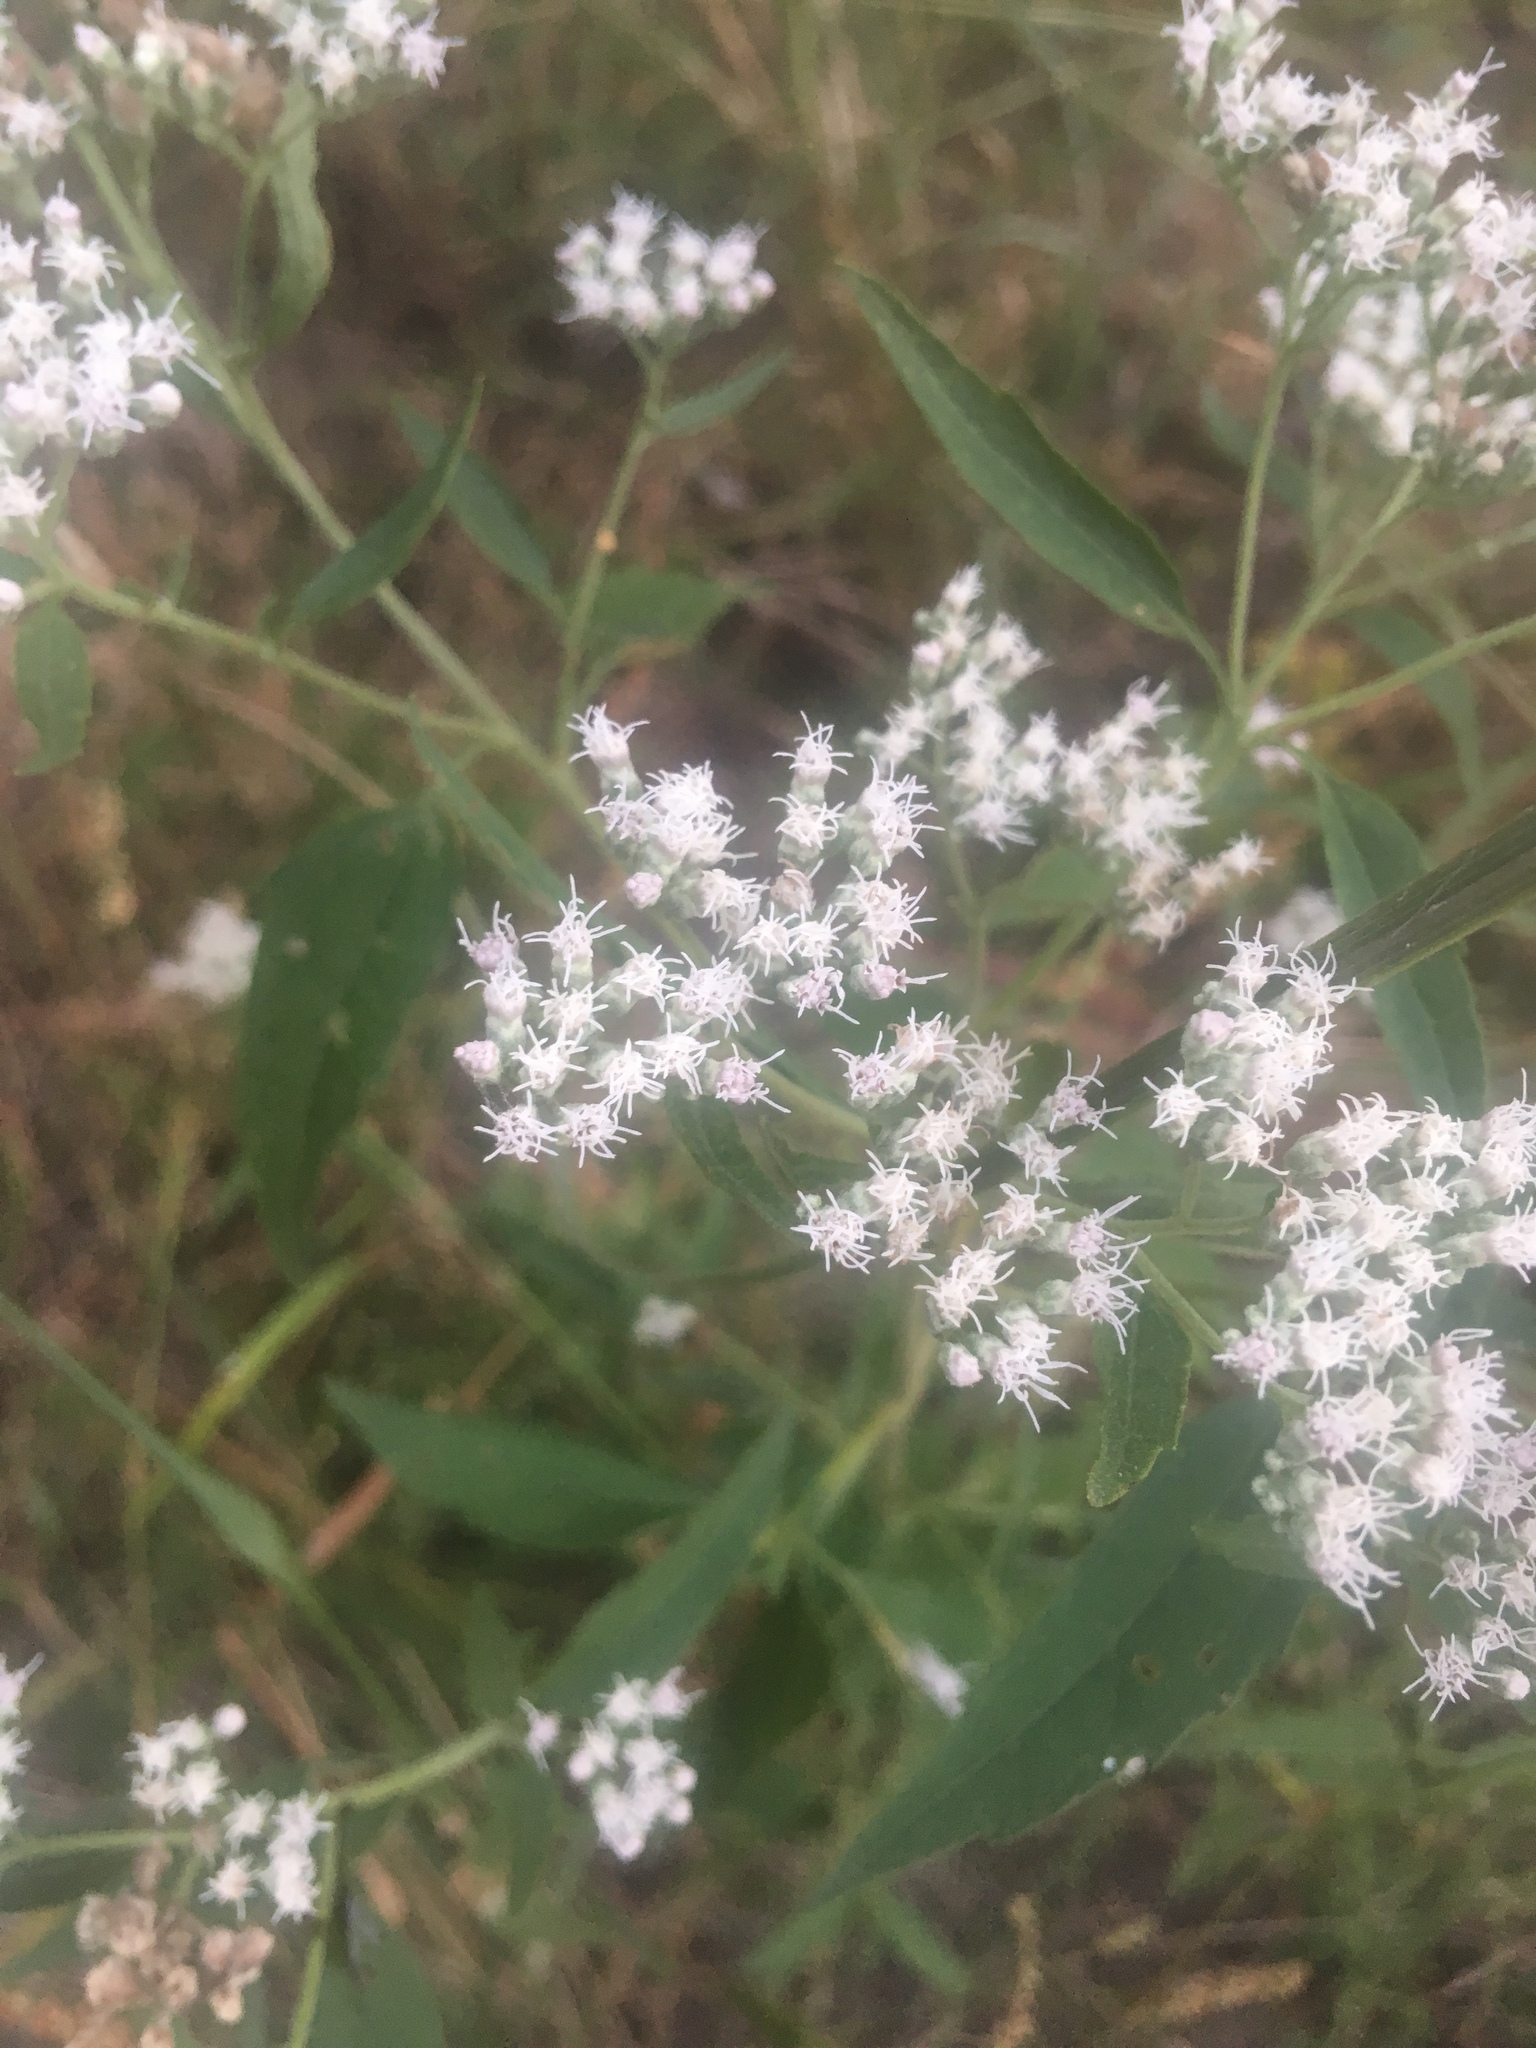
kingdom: Plantae
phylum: Tracheophyta
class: Magnoliopsida
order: Asterales
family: Asteraceae
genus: Eupatorium
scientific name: Eupatorium serotinum
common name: Late boneset
